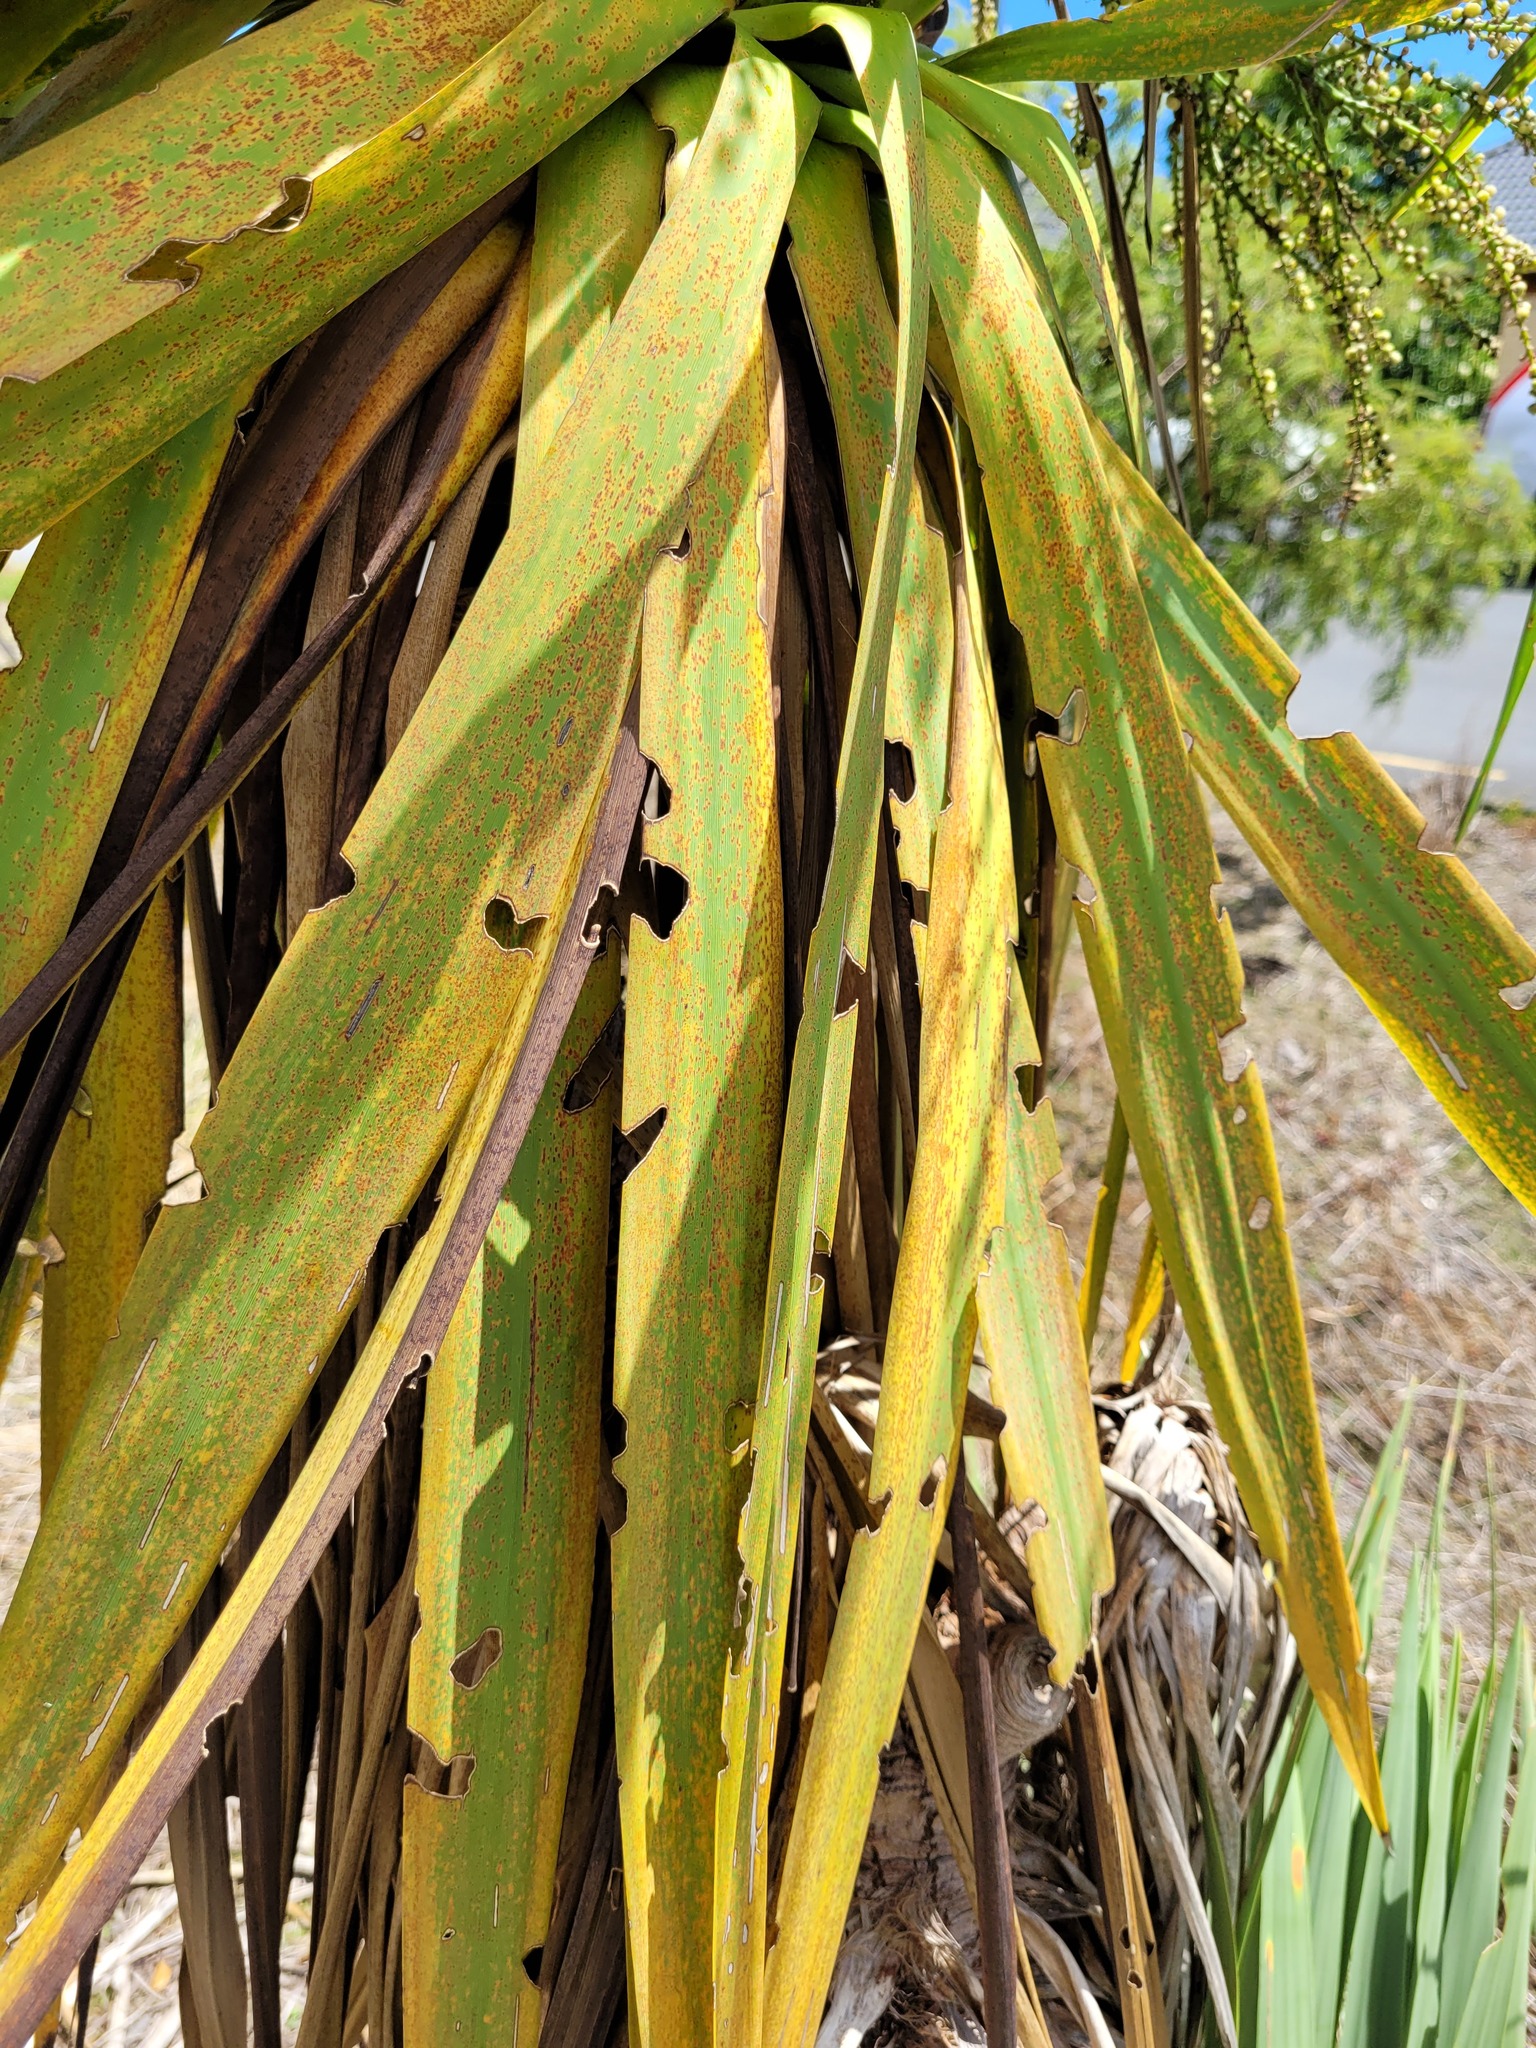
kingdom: Animalia
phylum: Arthropoda
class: Insecta
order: Lepidoptera
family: Geometridae
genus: Epiphryne
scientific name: Epiphryne verriculata
